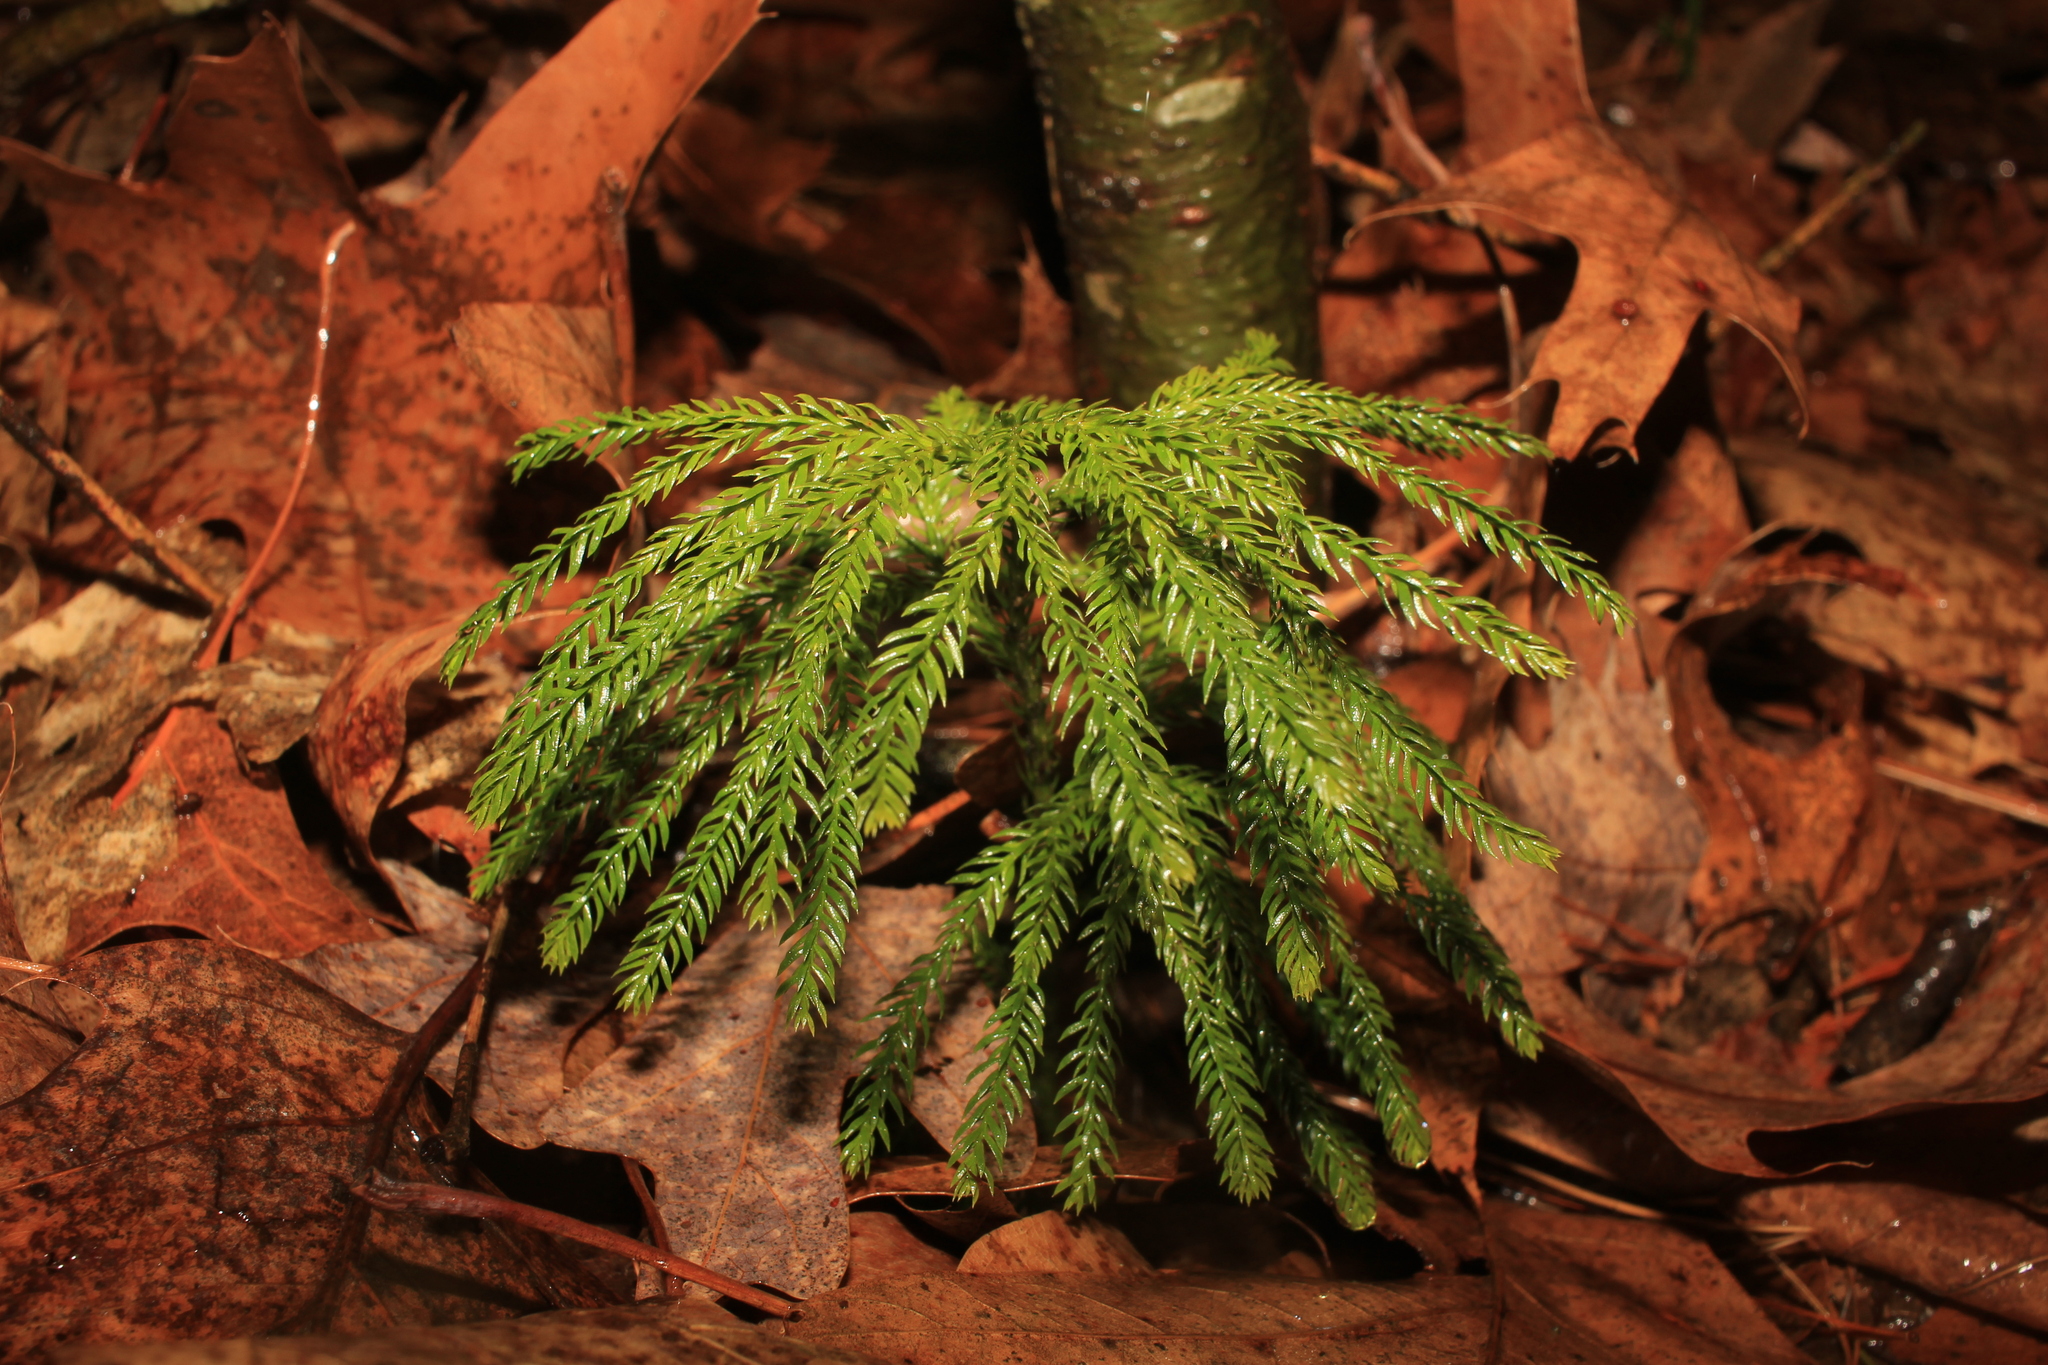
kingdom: Plantae
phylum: Tracheophyta
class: Lycopodiopsida
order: Lycopodiales
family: Lycopodiaceae
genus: Dendrolycopodium
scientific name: Dendrolycopodium obscurum
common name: Common ground-pine
